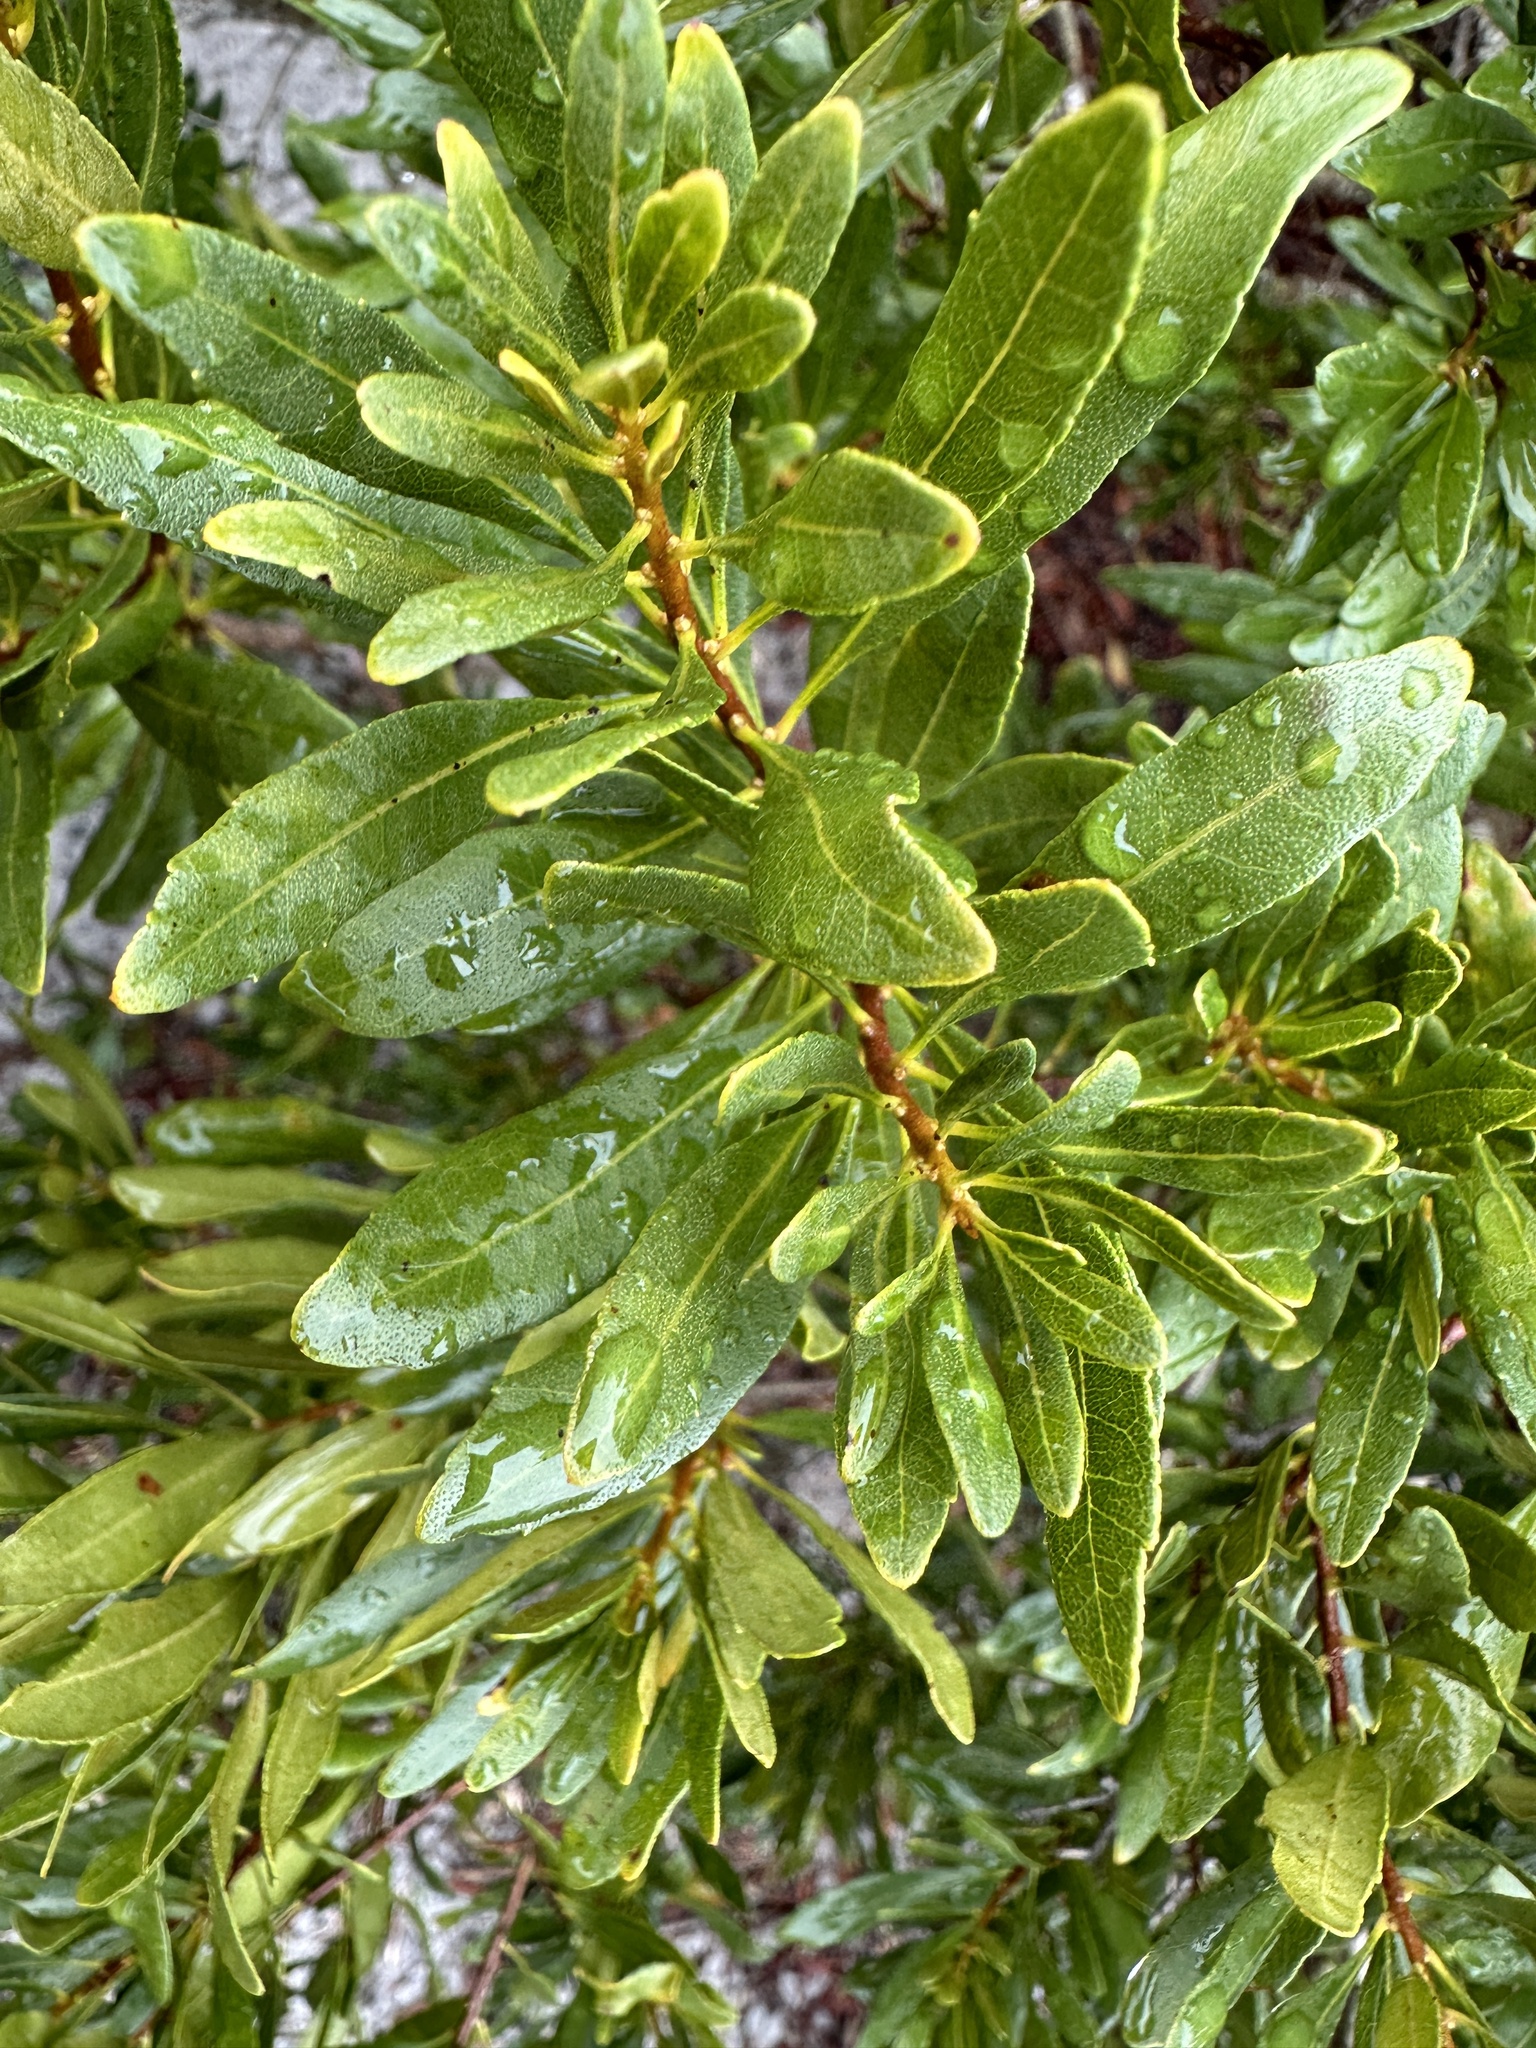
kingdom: Plantae
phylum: Tracheophyta
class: Magnoliopsida
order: Fagales
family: Myricaceae
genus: Morella
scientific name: Morella cerifera
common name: Wax myrtle
